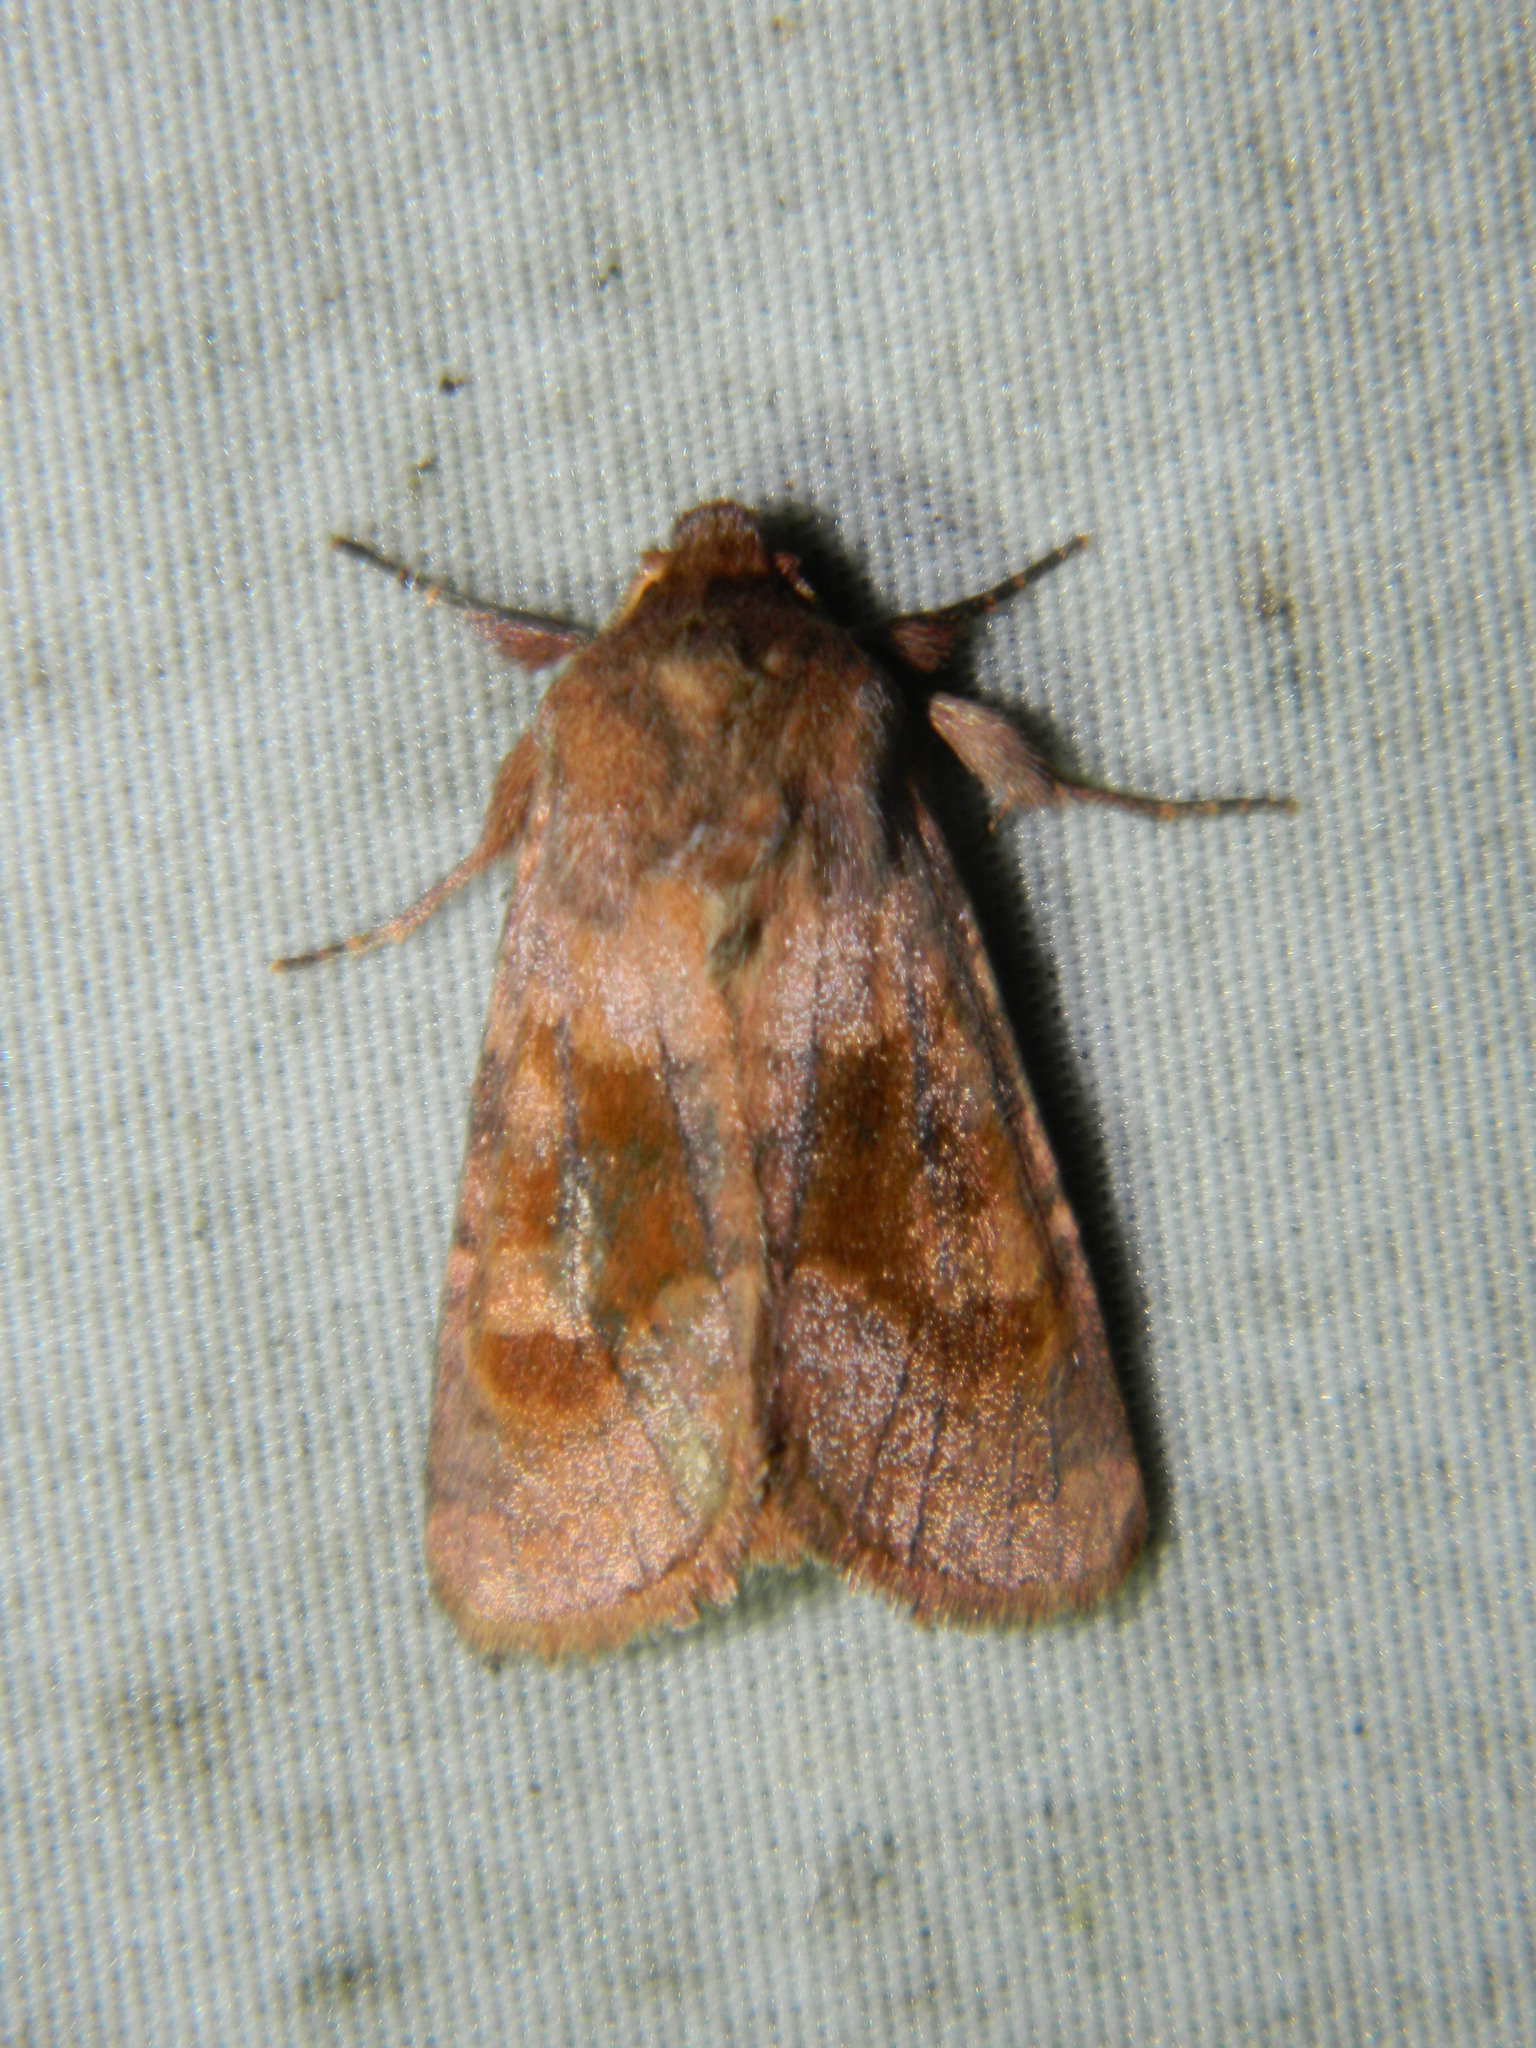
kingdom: Animalia
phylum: Arthropoda
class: Insecta
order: Lepidoptera
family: Noctuidae
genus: Nephelodes
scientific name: Nephelodes minians
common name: Bronzed cutworm
